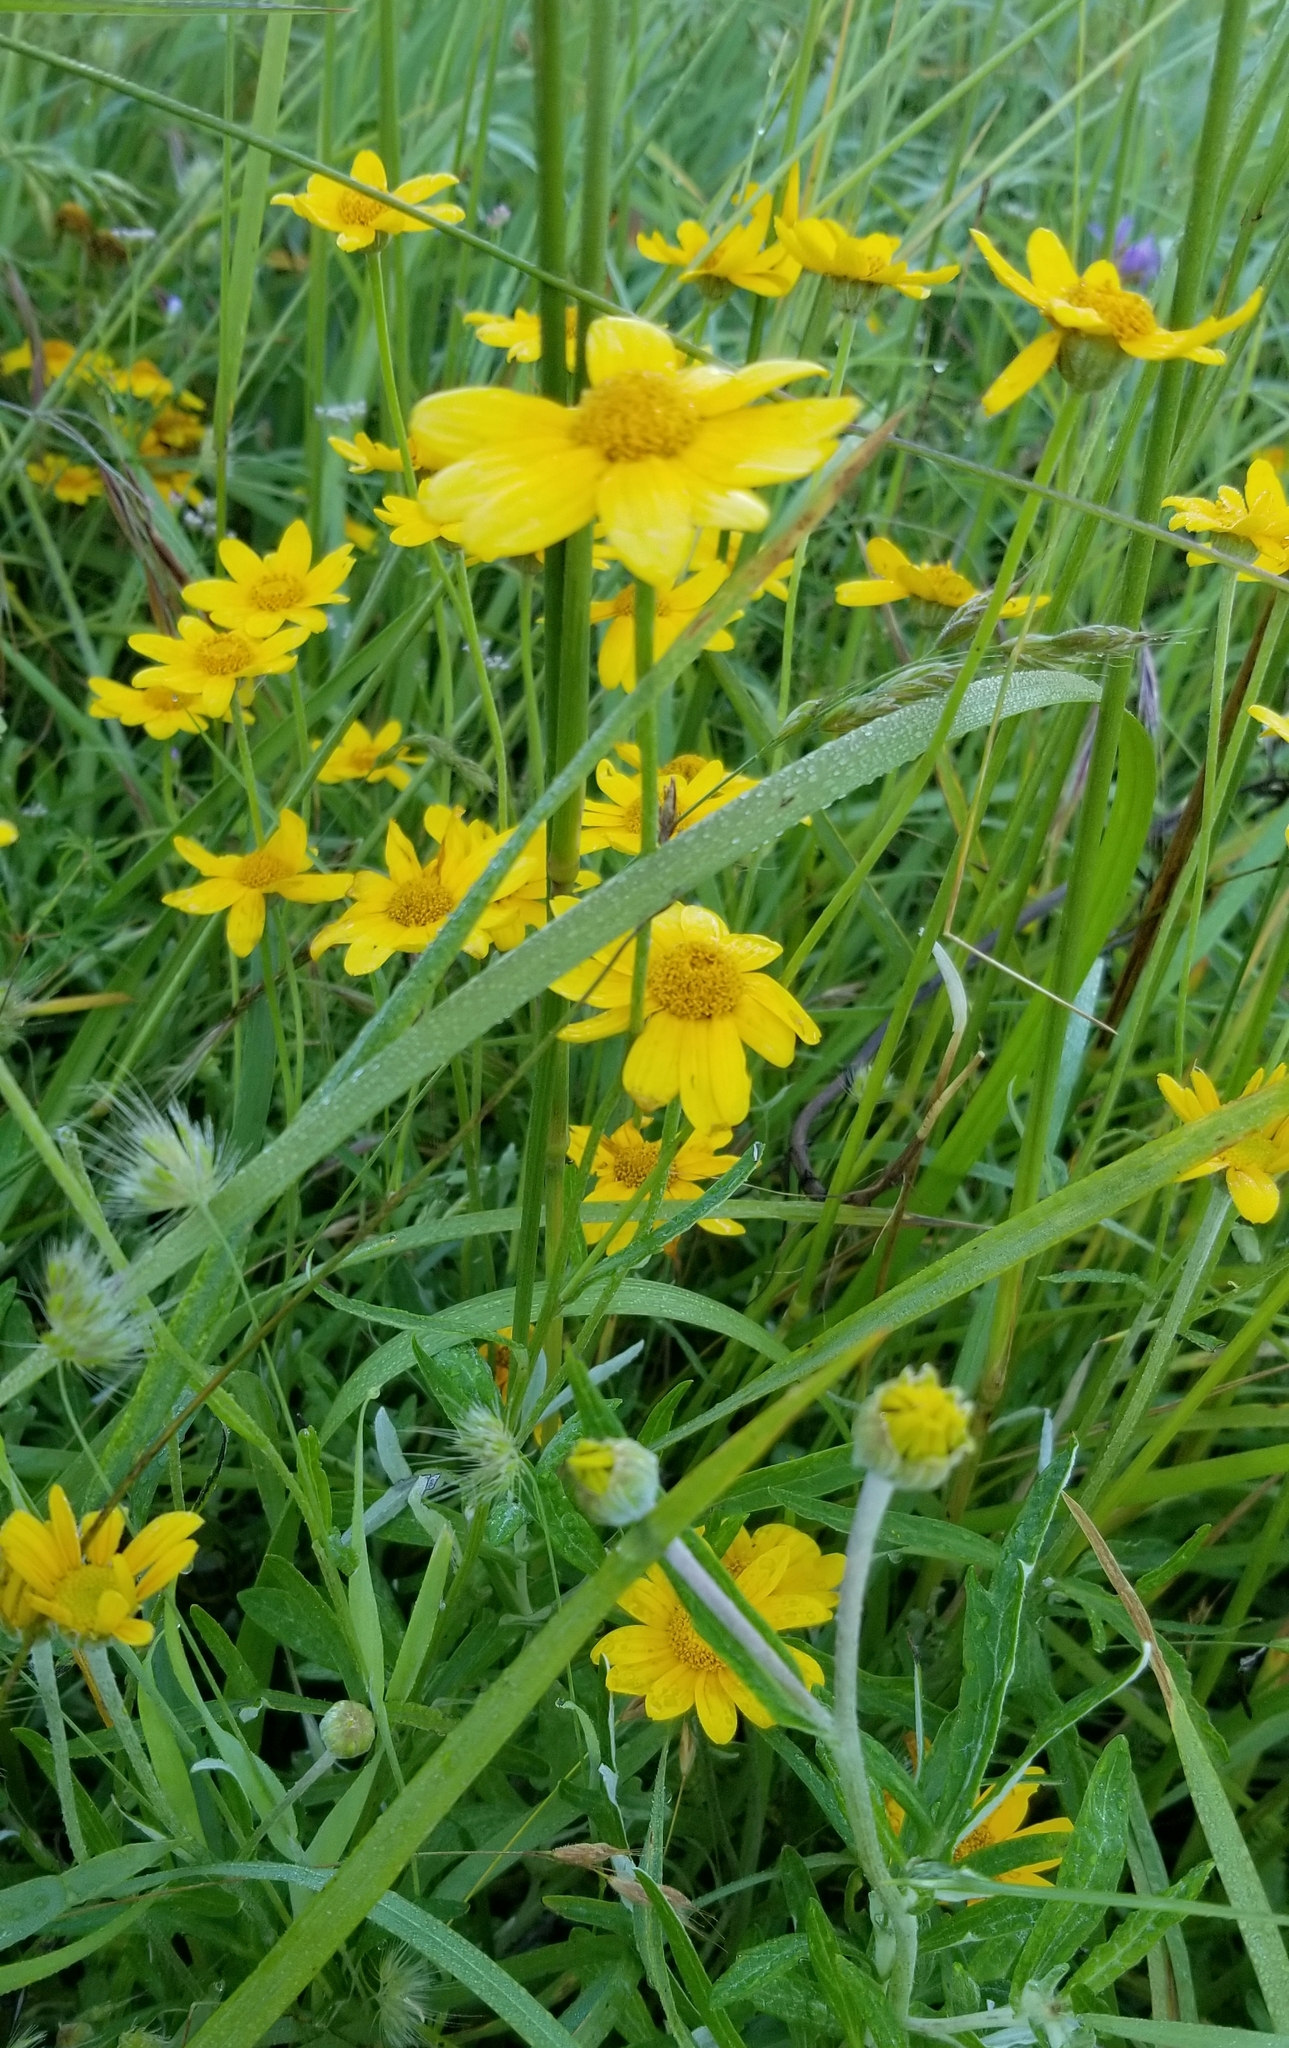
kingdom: Plantae
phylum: Tracheophyta
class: Magnoliopsida
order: Asterales
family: Asteraceae
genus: Eriophyllum
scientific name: Eriophyllum lanatum
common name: Common woolly-sunflower
